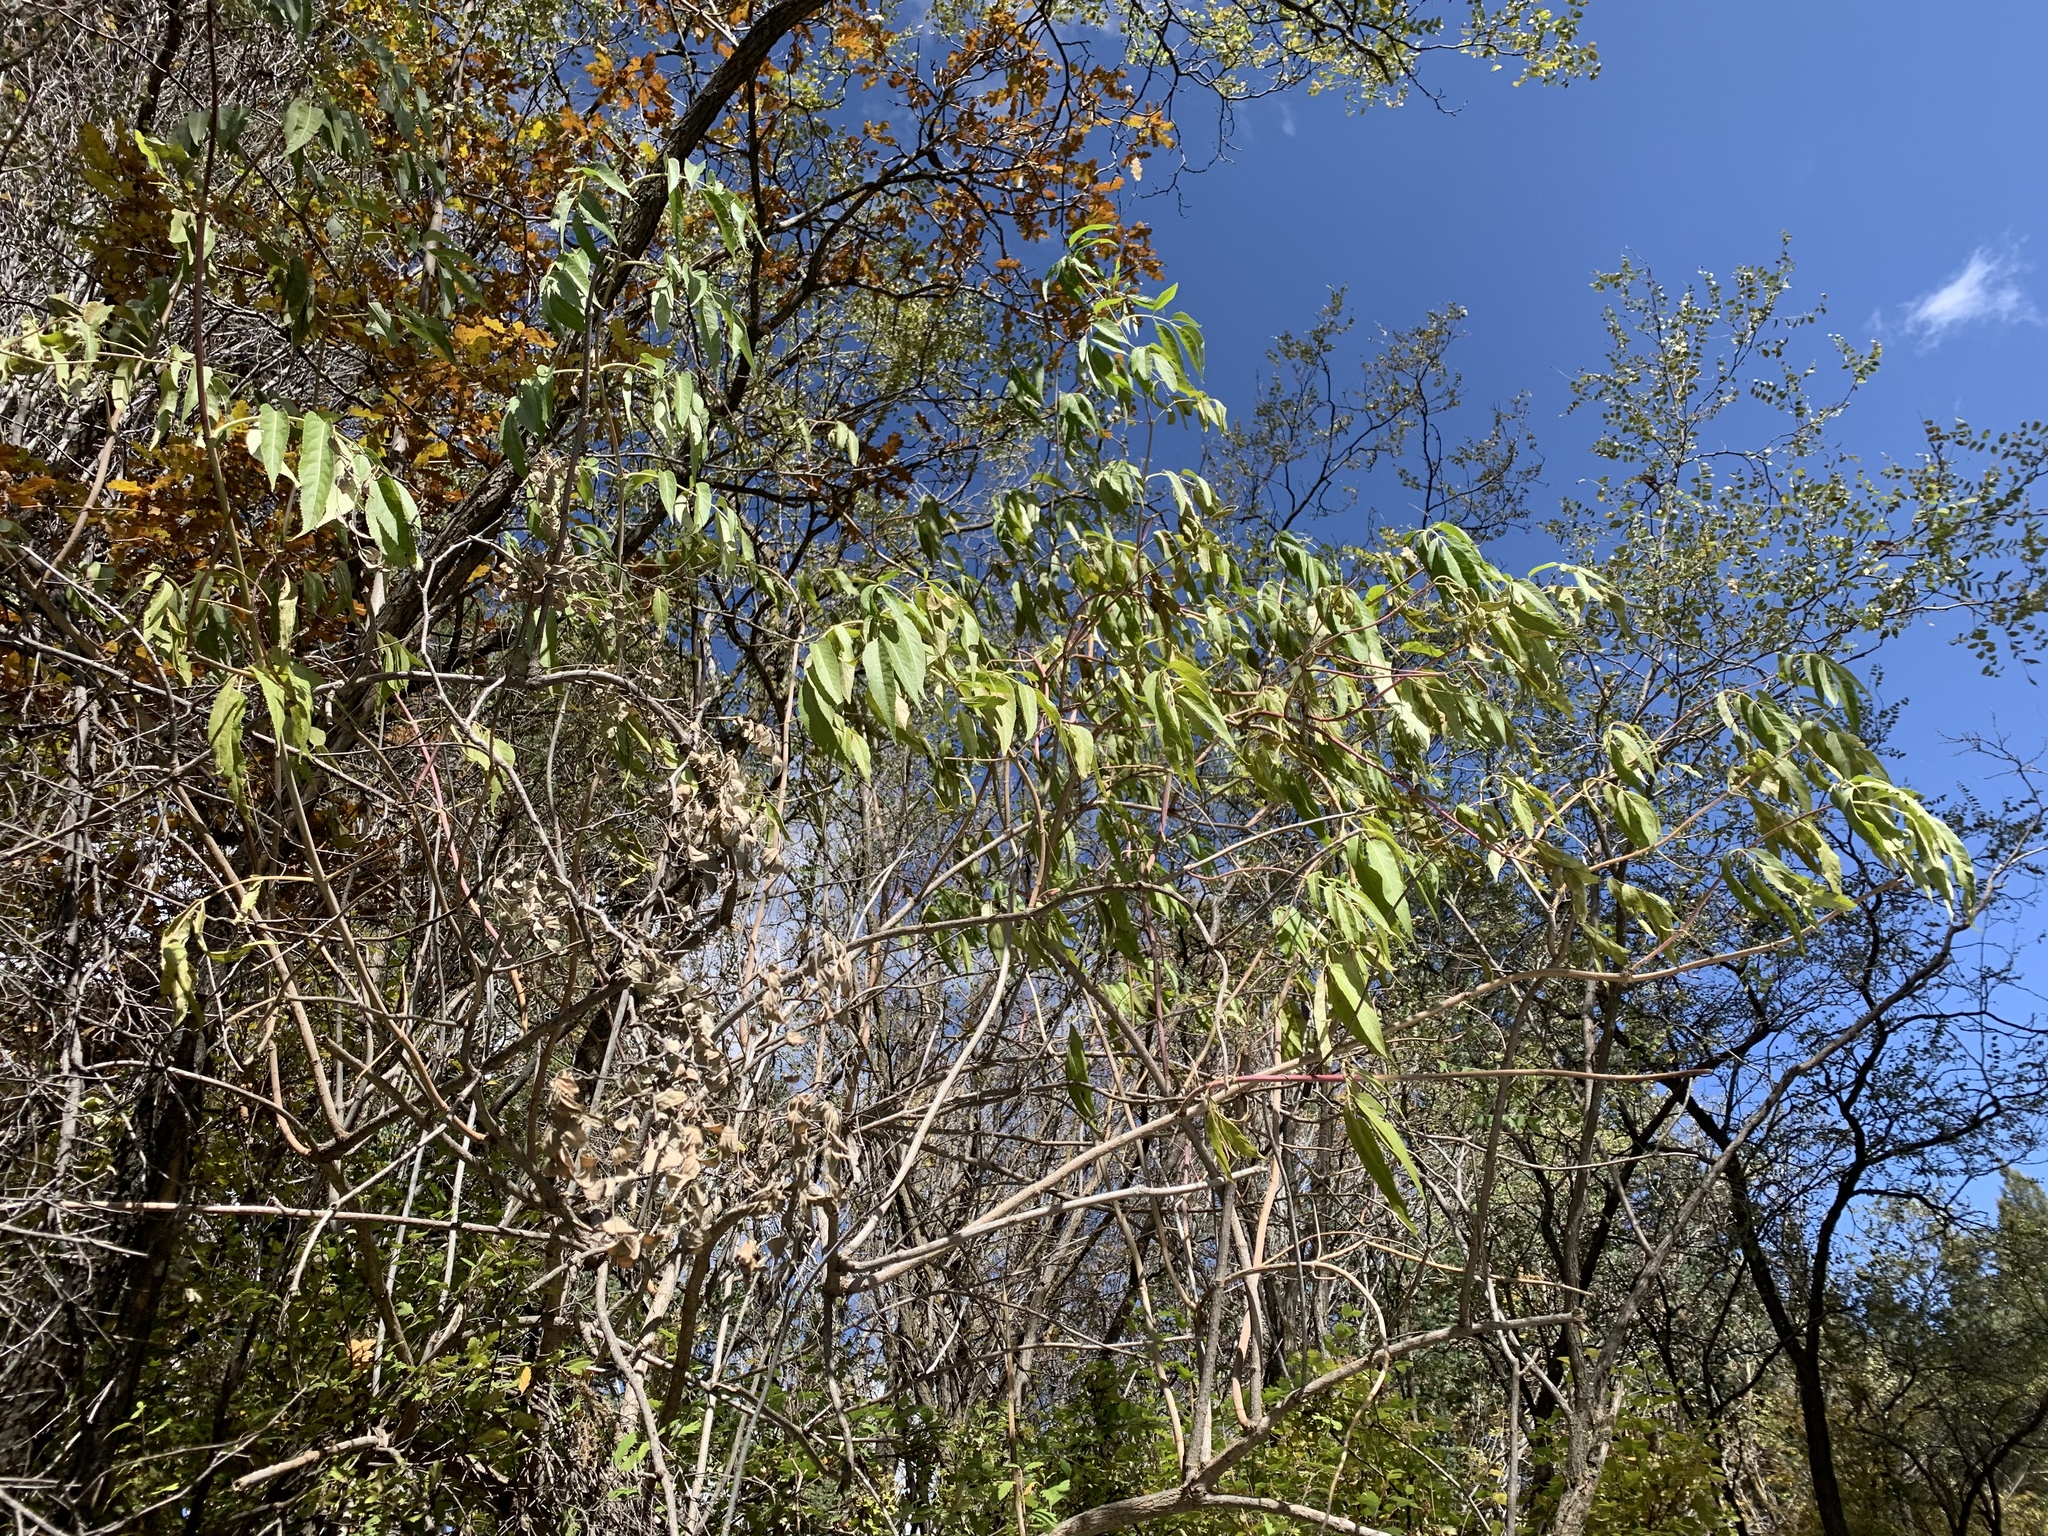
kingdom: Plantae
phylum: Tracheophyta
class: Magnoliopsida
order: Dipsacales
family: Viburnaceae
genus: Sambucus
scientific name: Sambucus cerulea
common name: Blue elder
